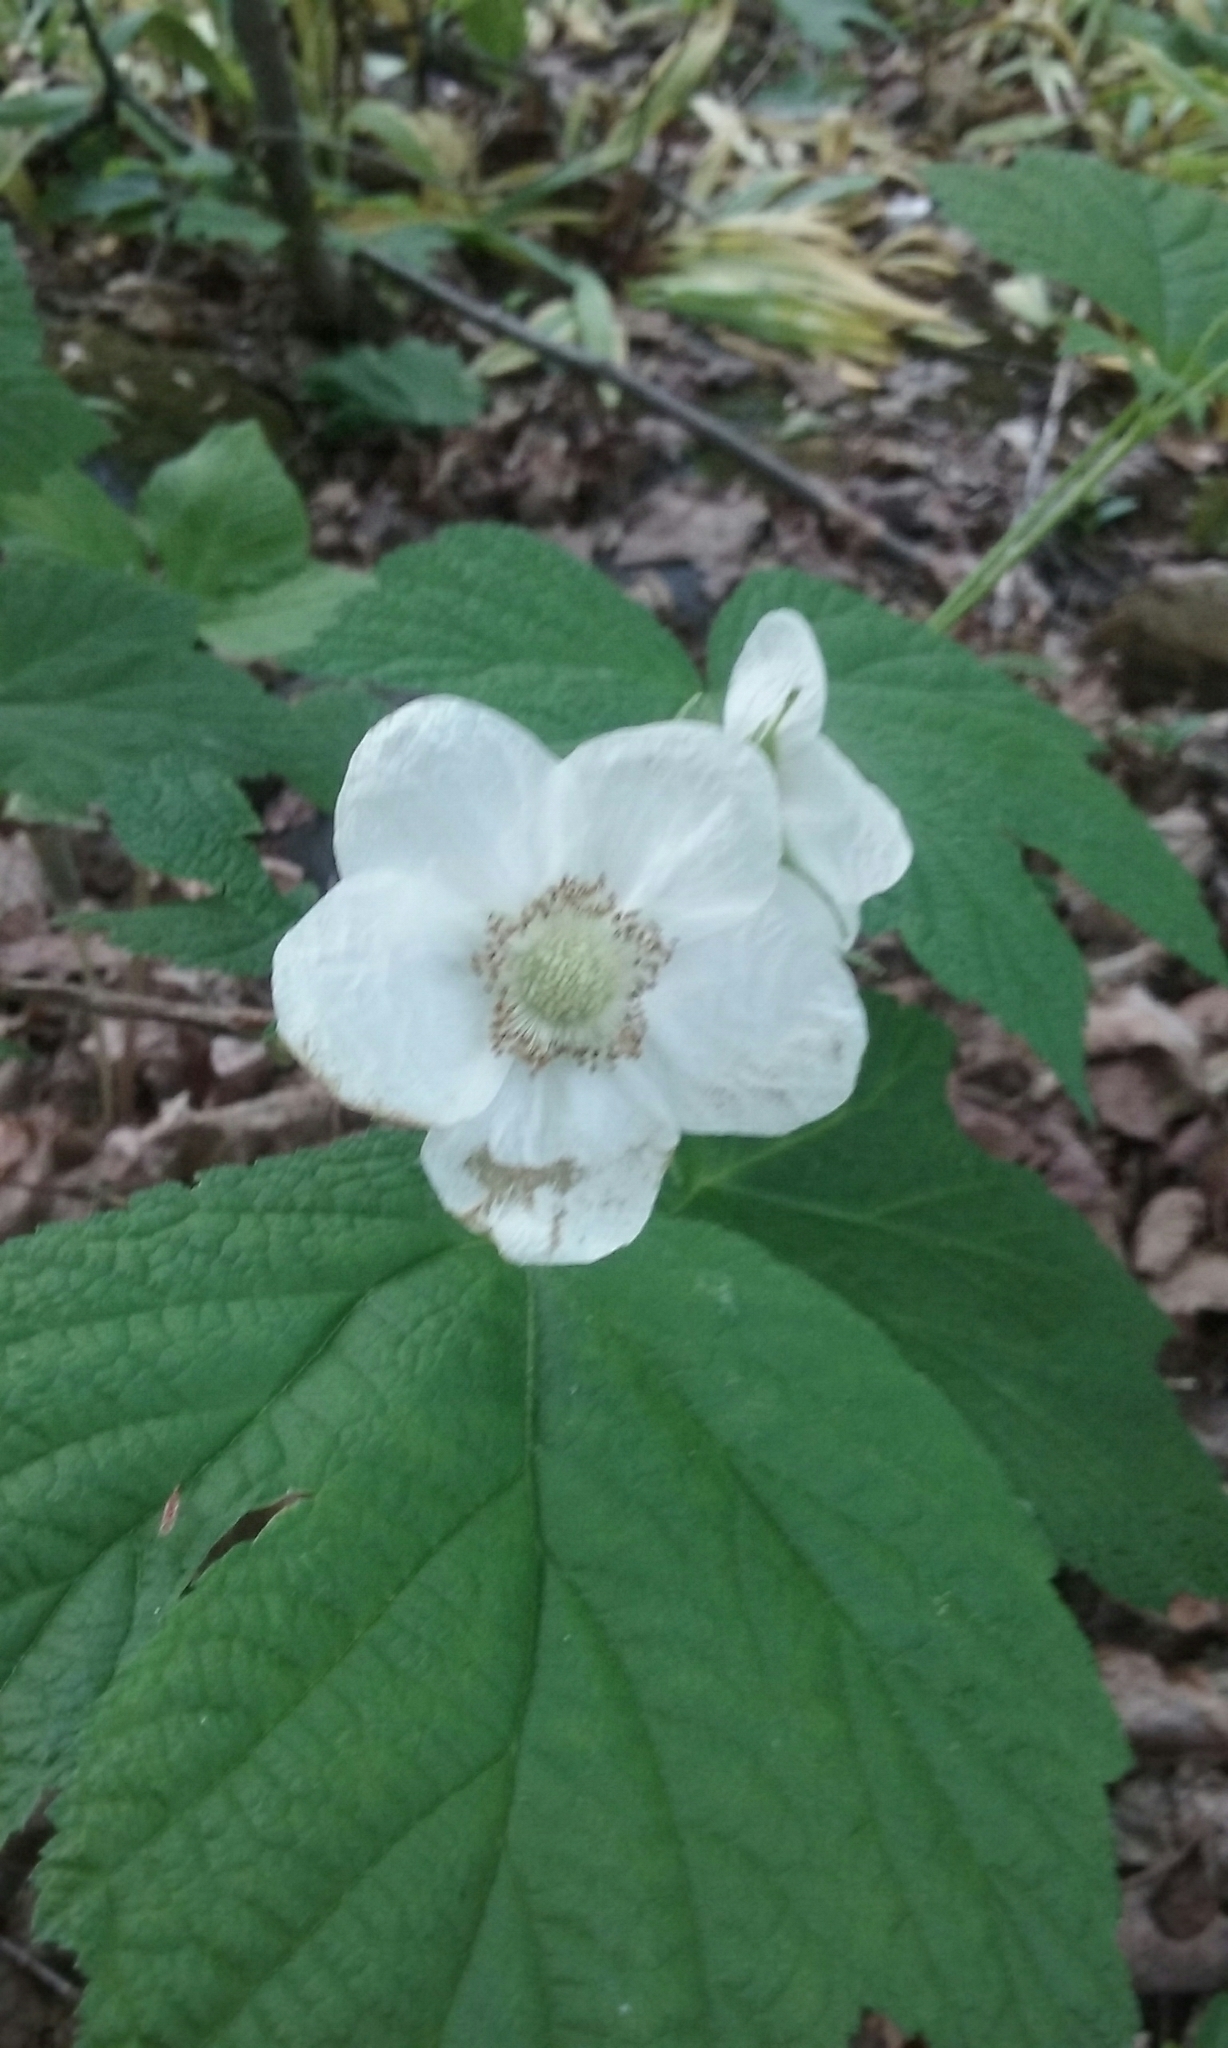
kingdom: Plantae
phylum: Tracheophyta
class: Magnoliopsida
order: Rosales
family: Rosaceae
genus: Rubus
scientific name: Rubus parviflorus
